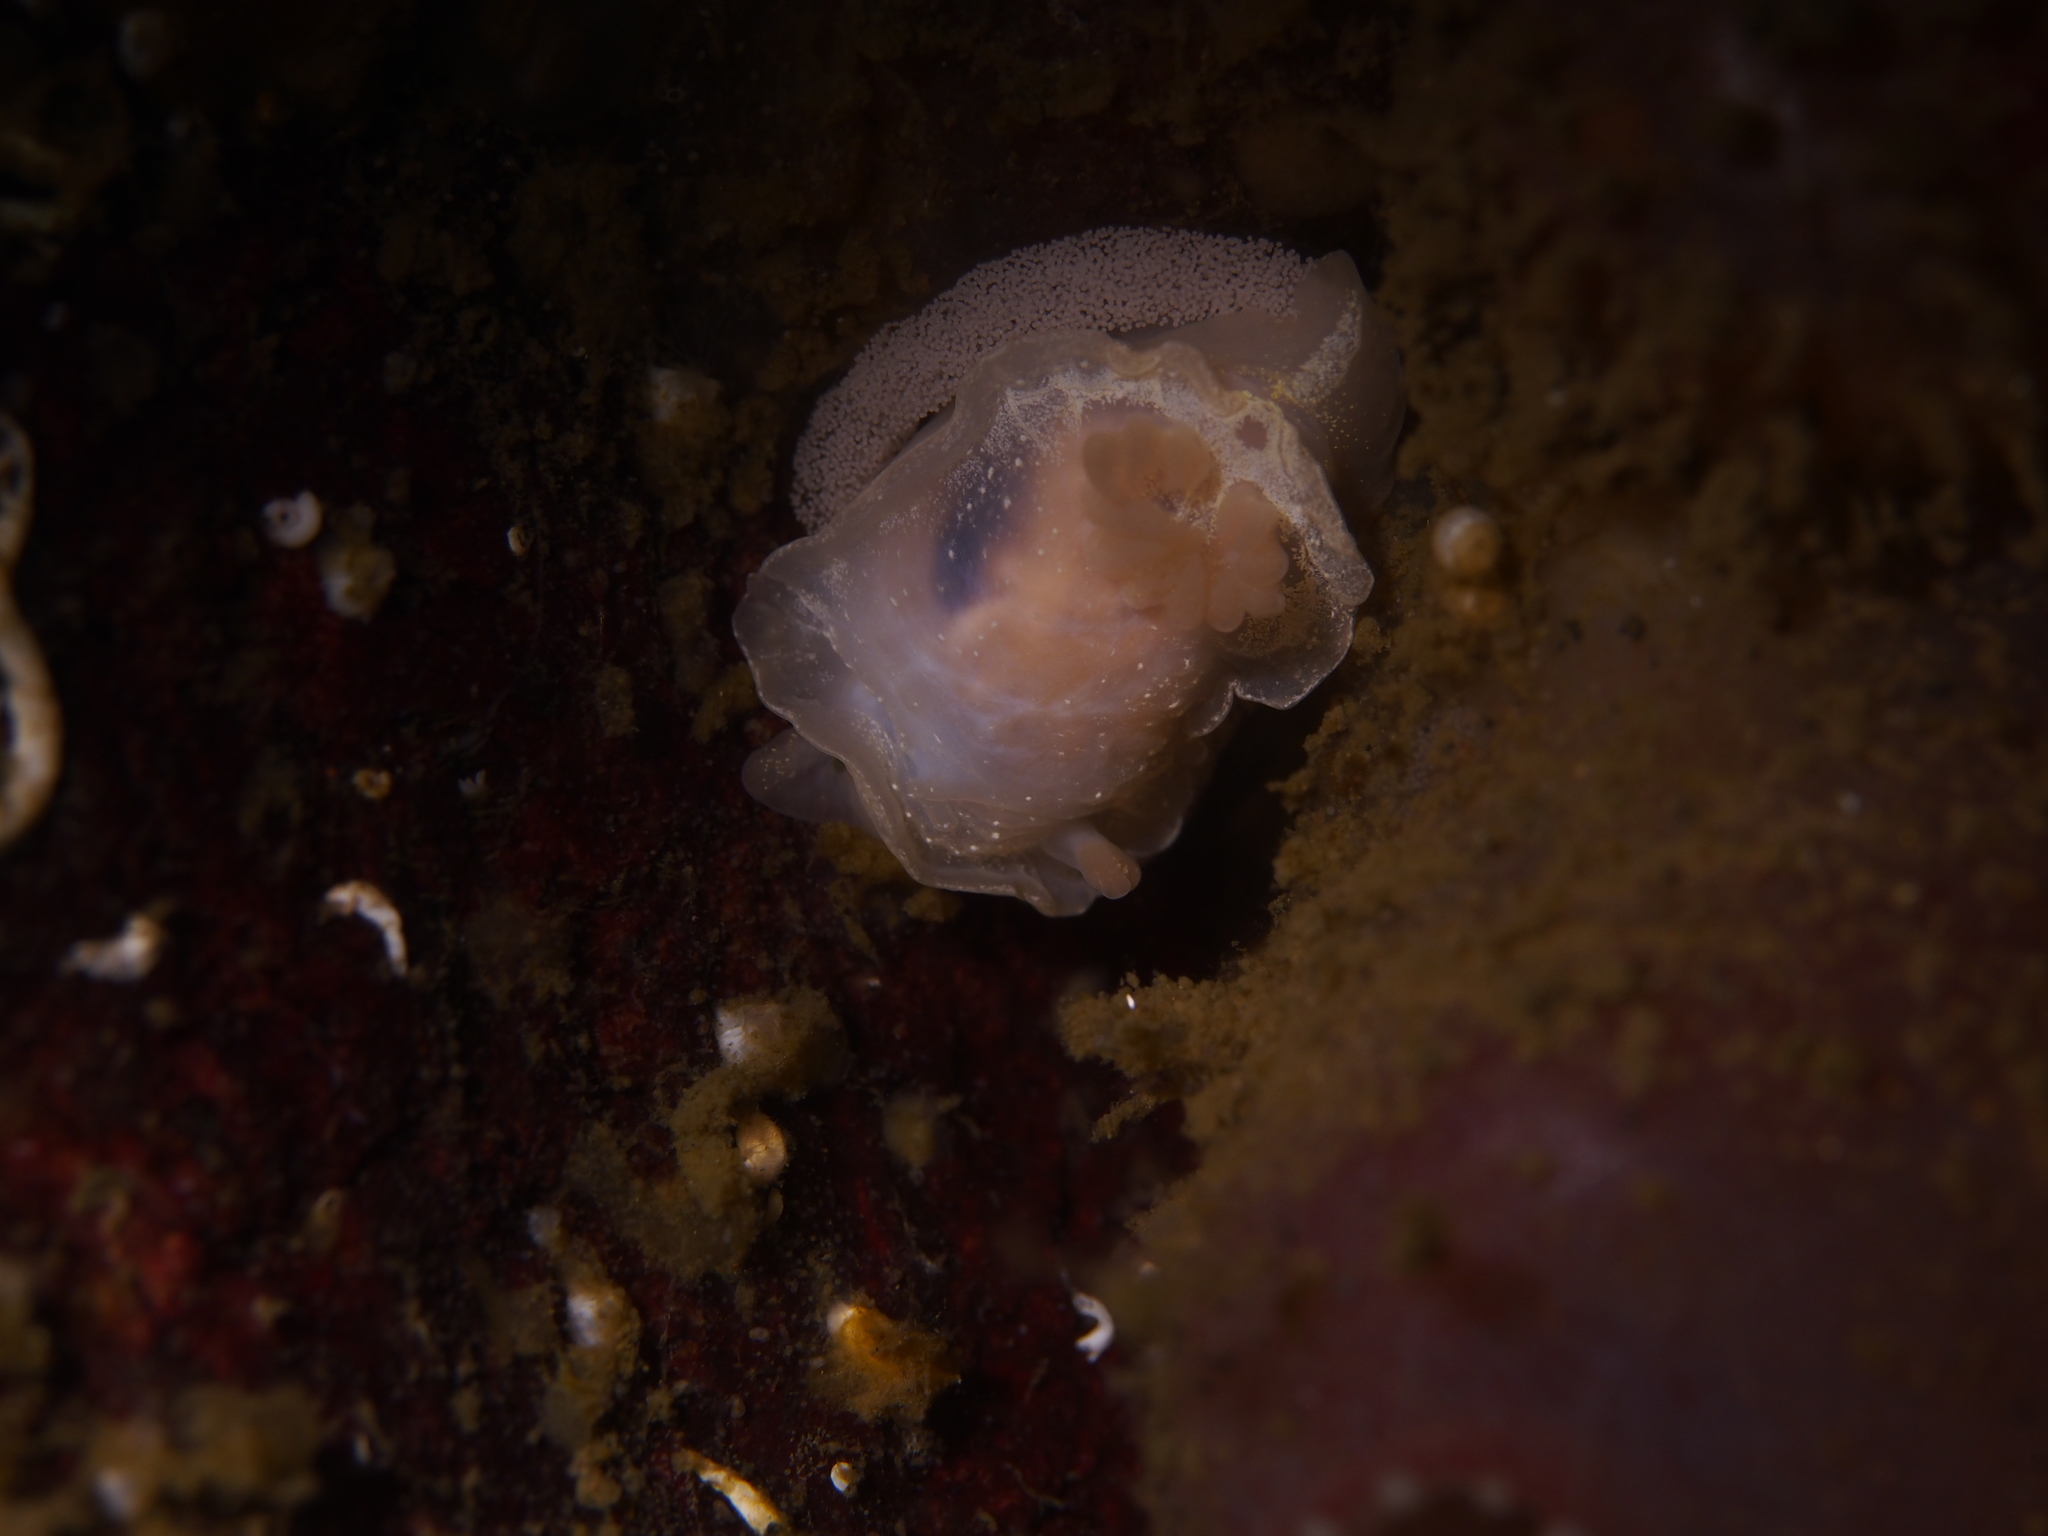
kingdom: Animalia
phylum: Mollusca
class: Gastropoda
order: Nudibranchia
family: Goniodorididae
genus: Okenia
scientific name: Okenia
